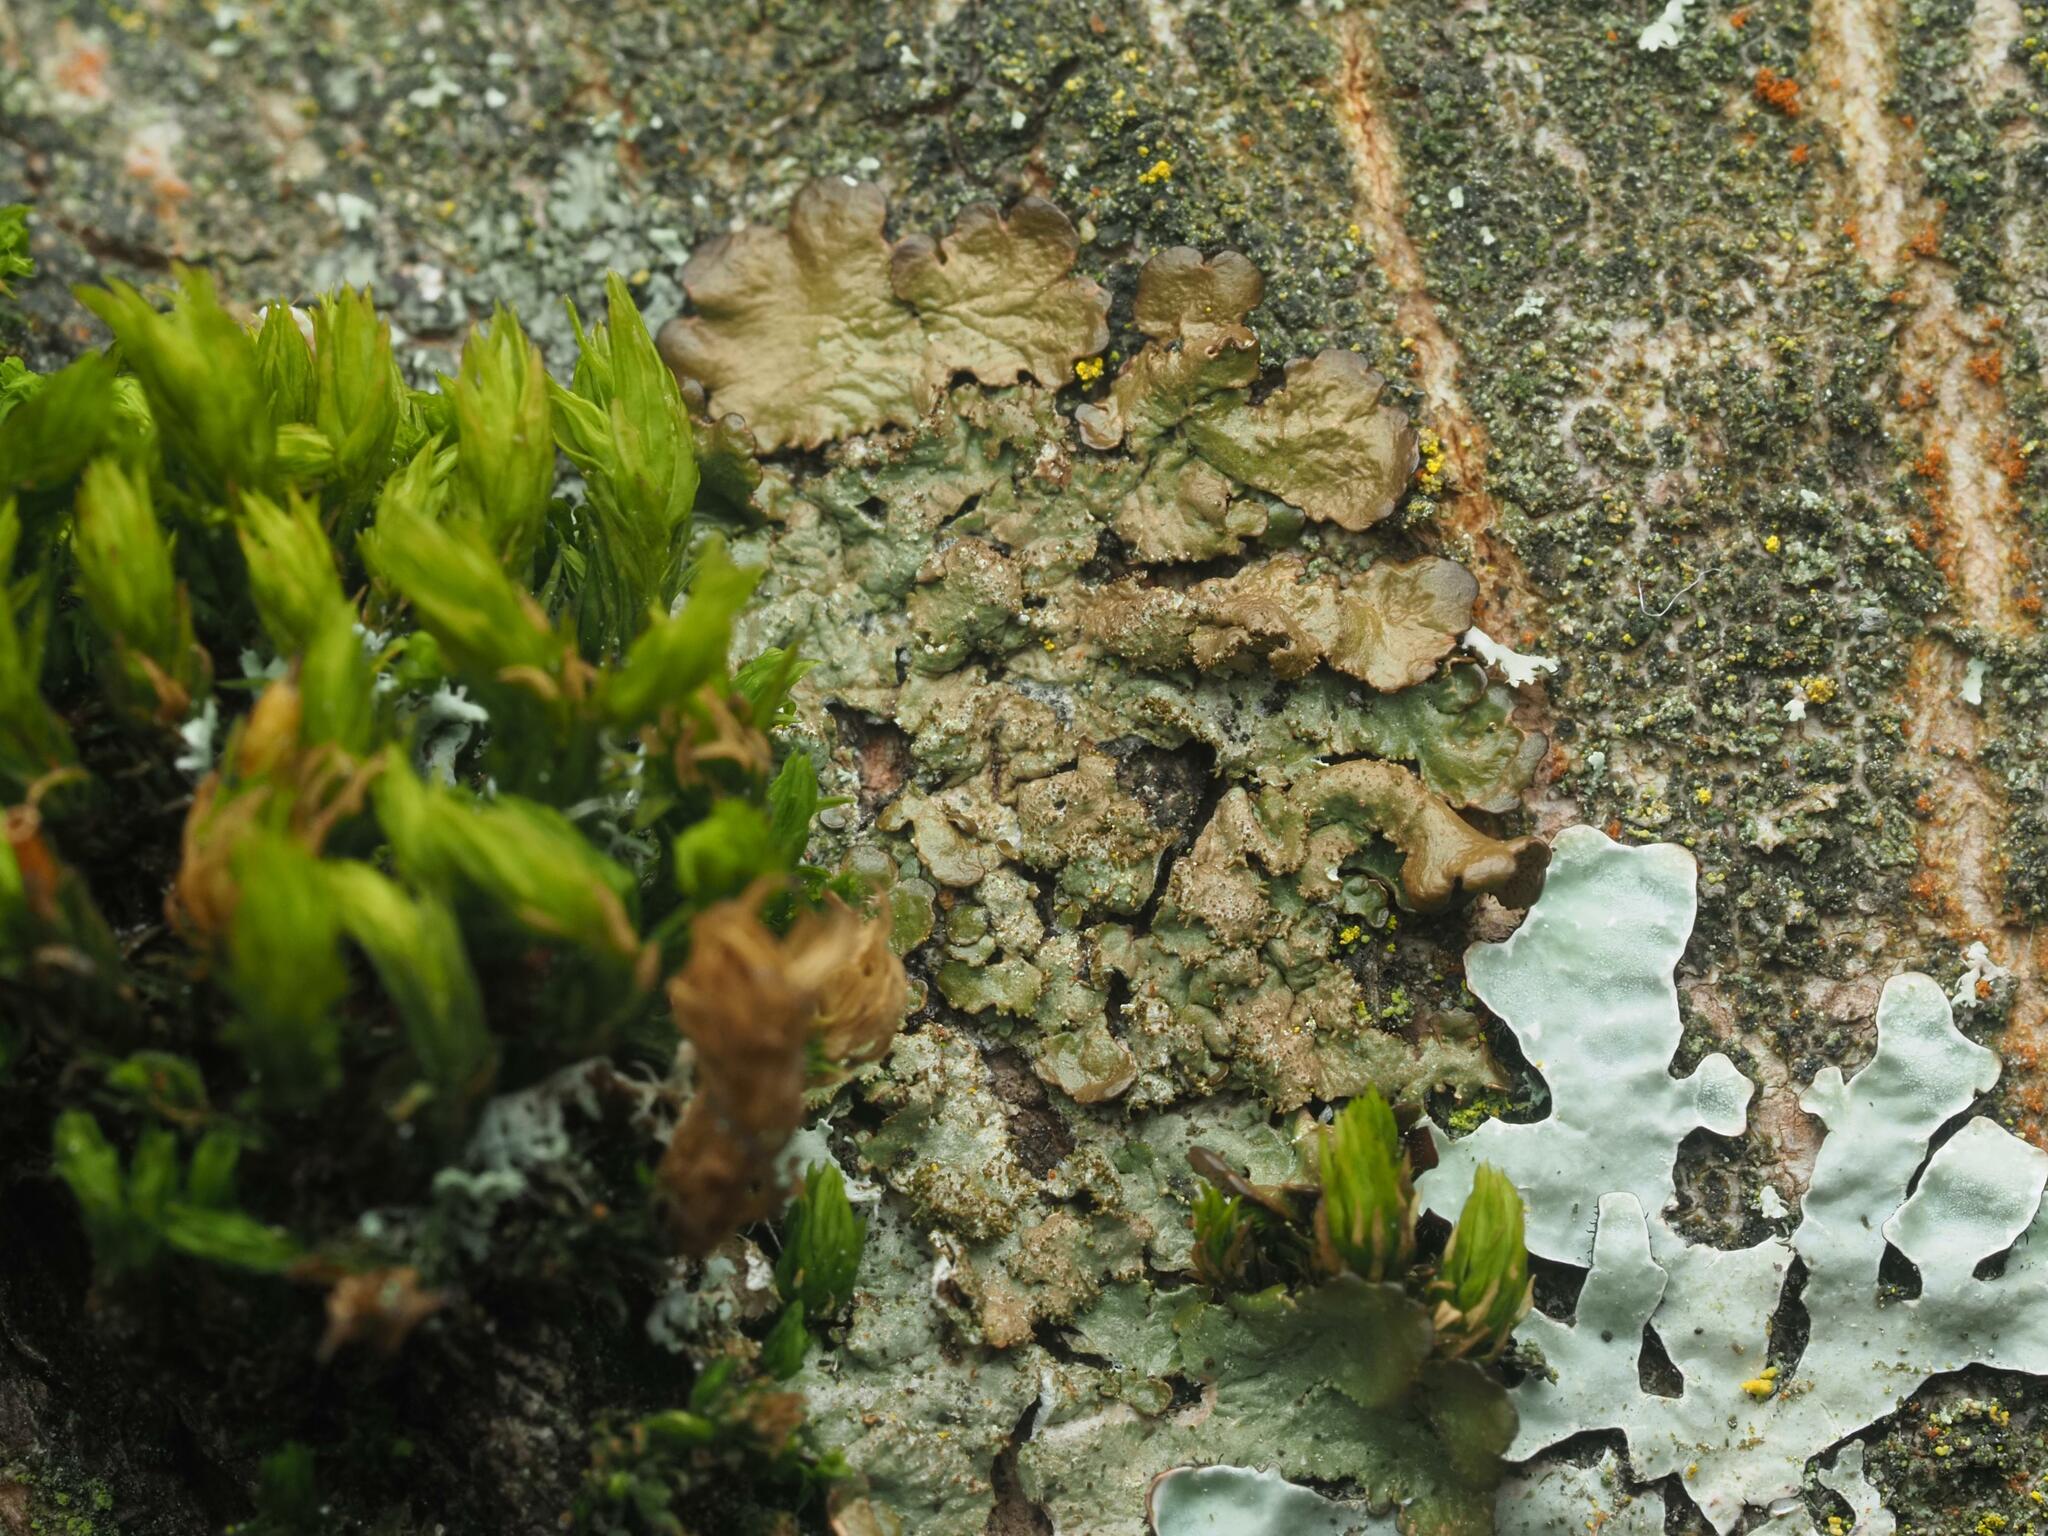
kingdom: Fungi
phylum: Ascomycota
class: Lecanoromycetes
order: Lecanorales
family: Parmeliaceae
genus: Melanohalea
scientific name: Melanohalea exasperatula
